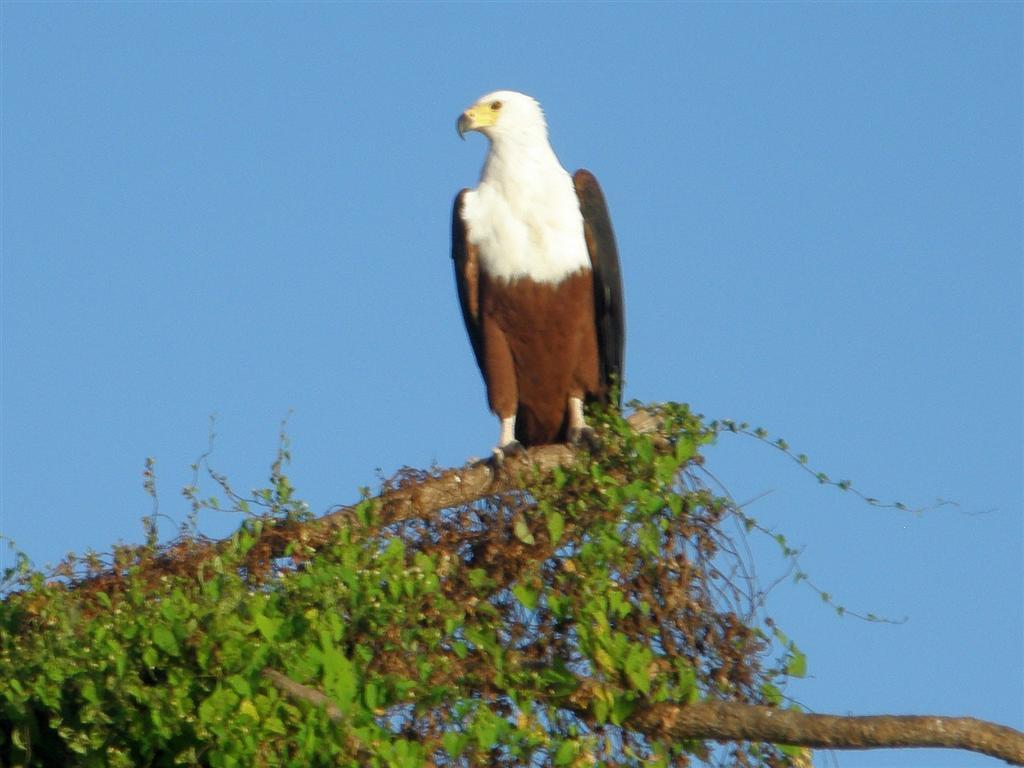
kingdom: Animalia
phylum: Chordata
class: Aves
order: Accipitriformes
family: Accipitridae
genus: Haliaeetus
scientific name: Haliaeetus vocifer
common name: African fish eagle
